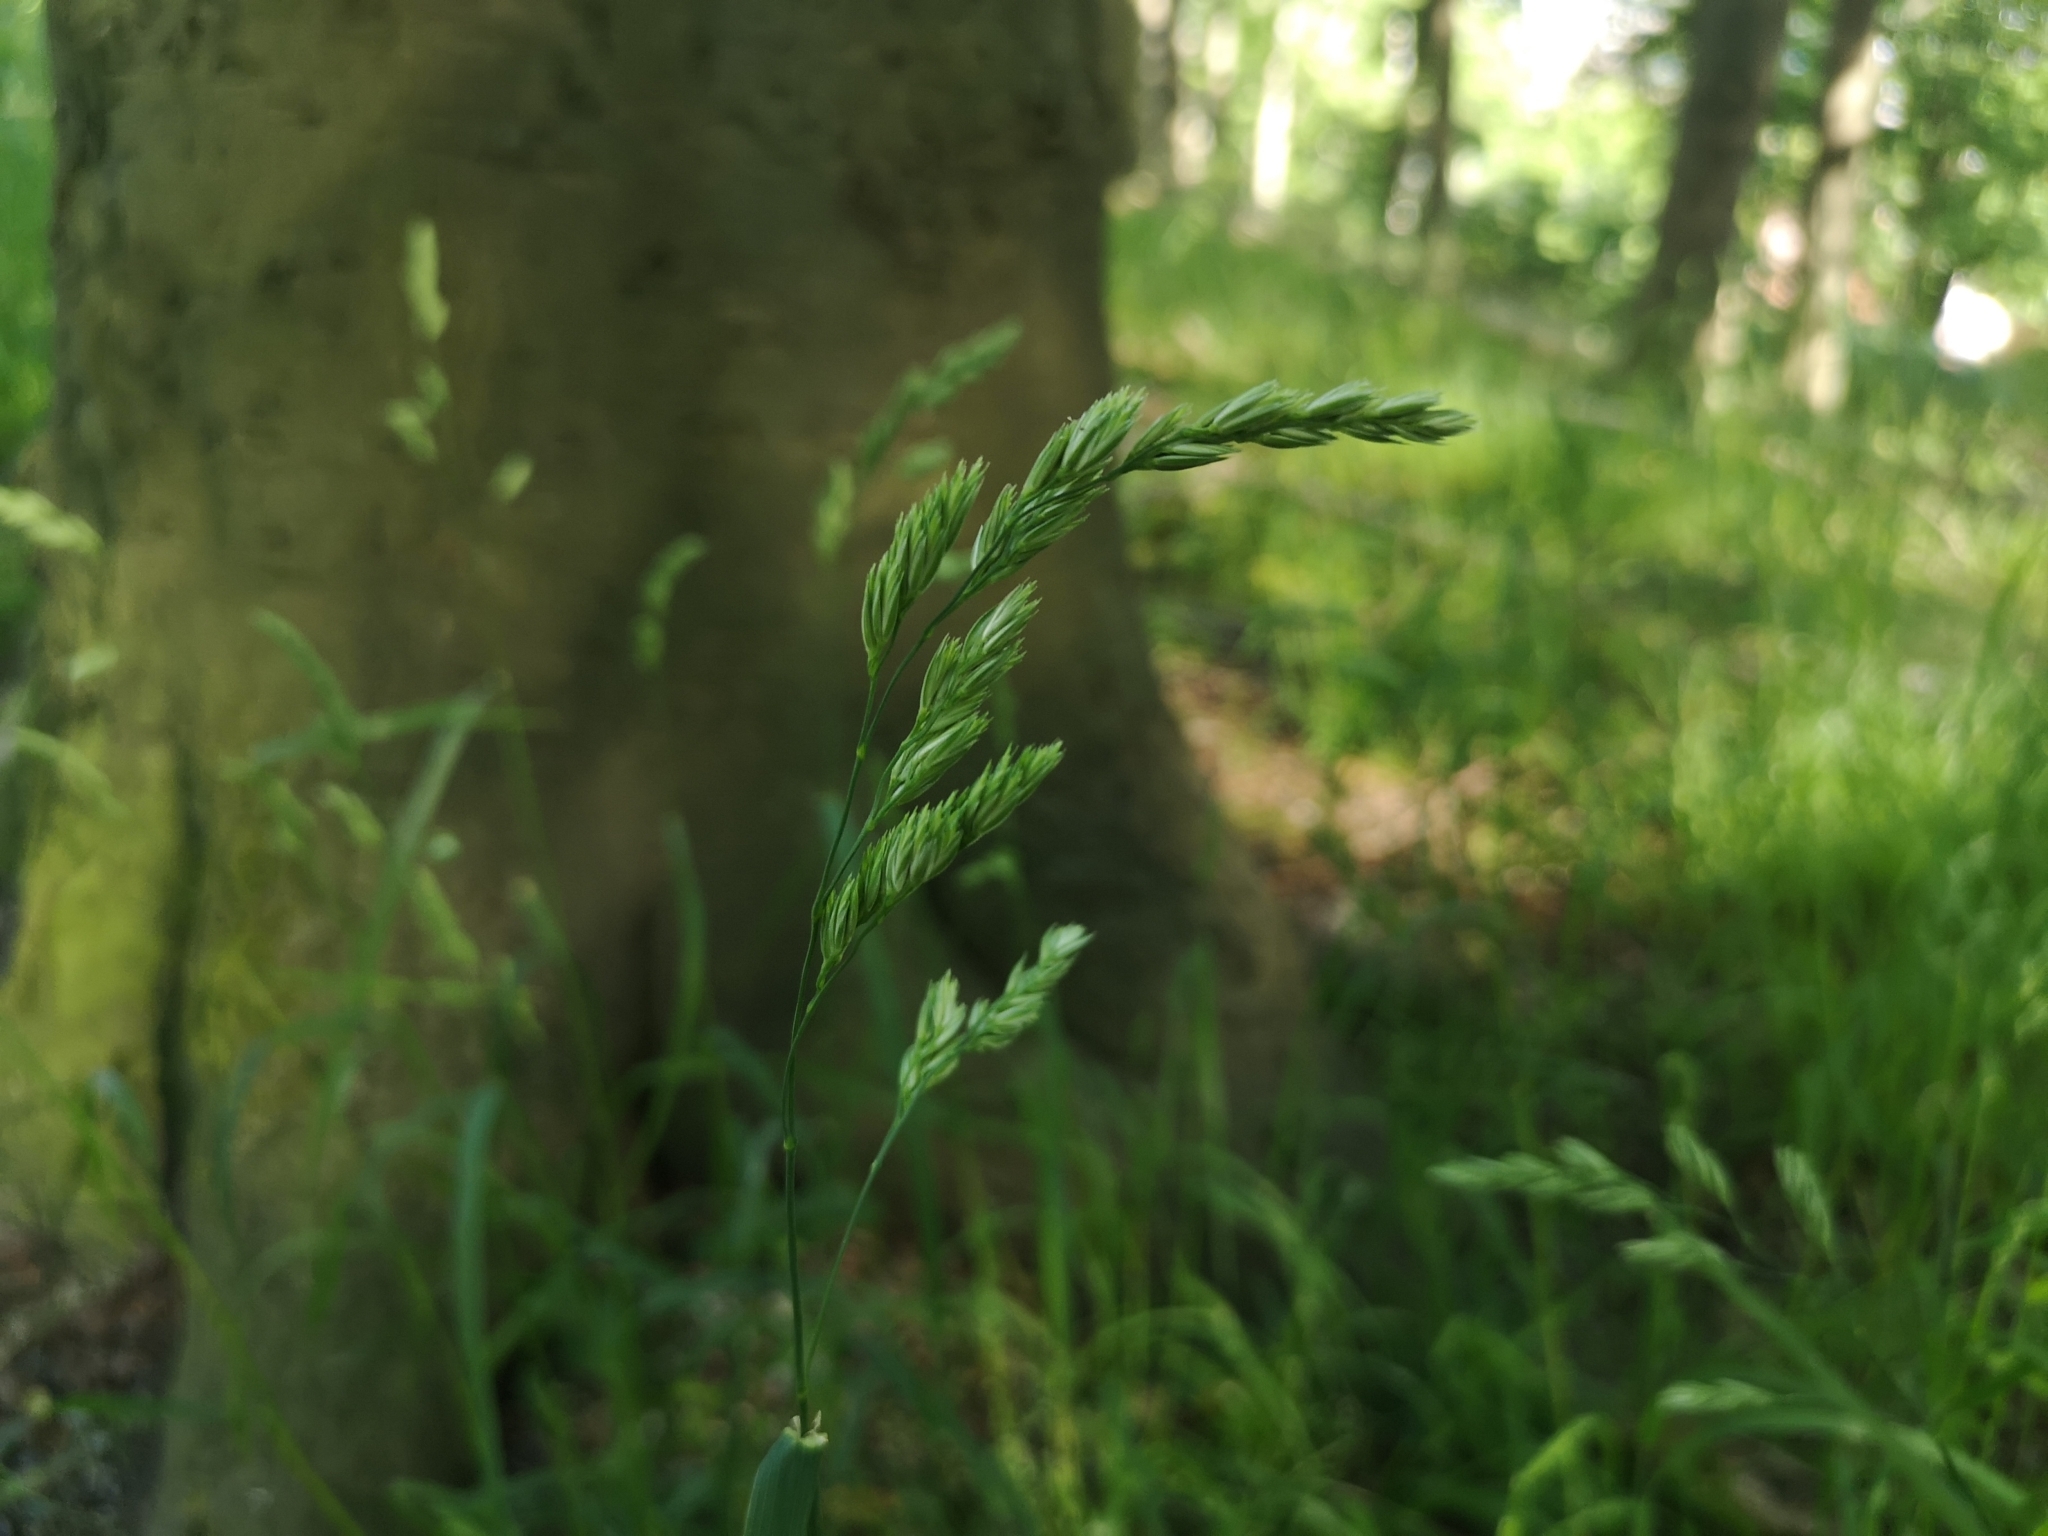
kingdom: Plantae
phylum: Tracheophyta
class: Liliopsida
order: Poales
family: Poaceae
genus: Dactylis
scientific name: Dactylis glomerata
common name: Orchardgrass
